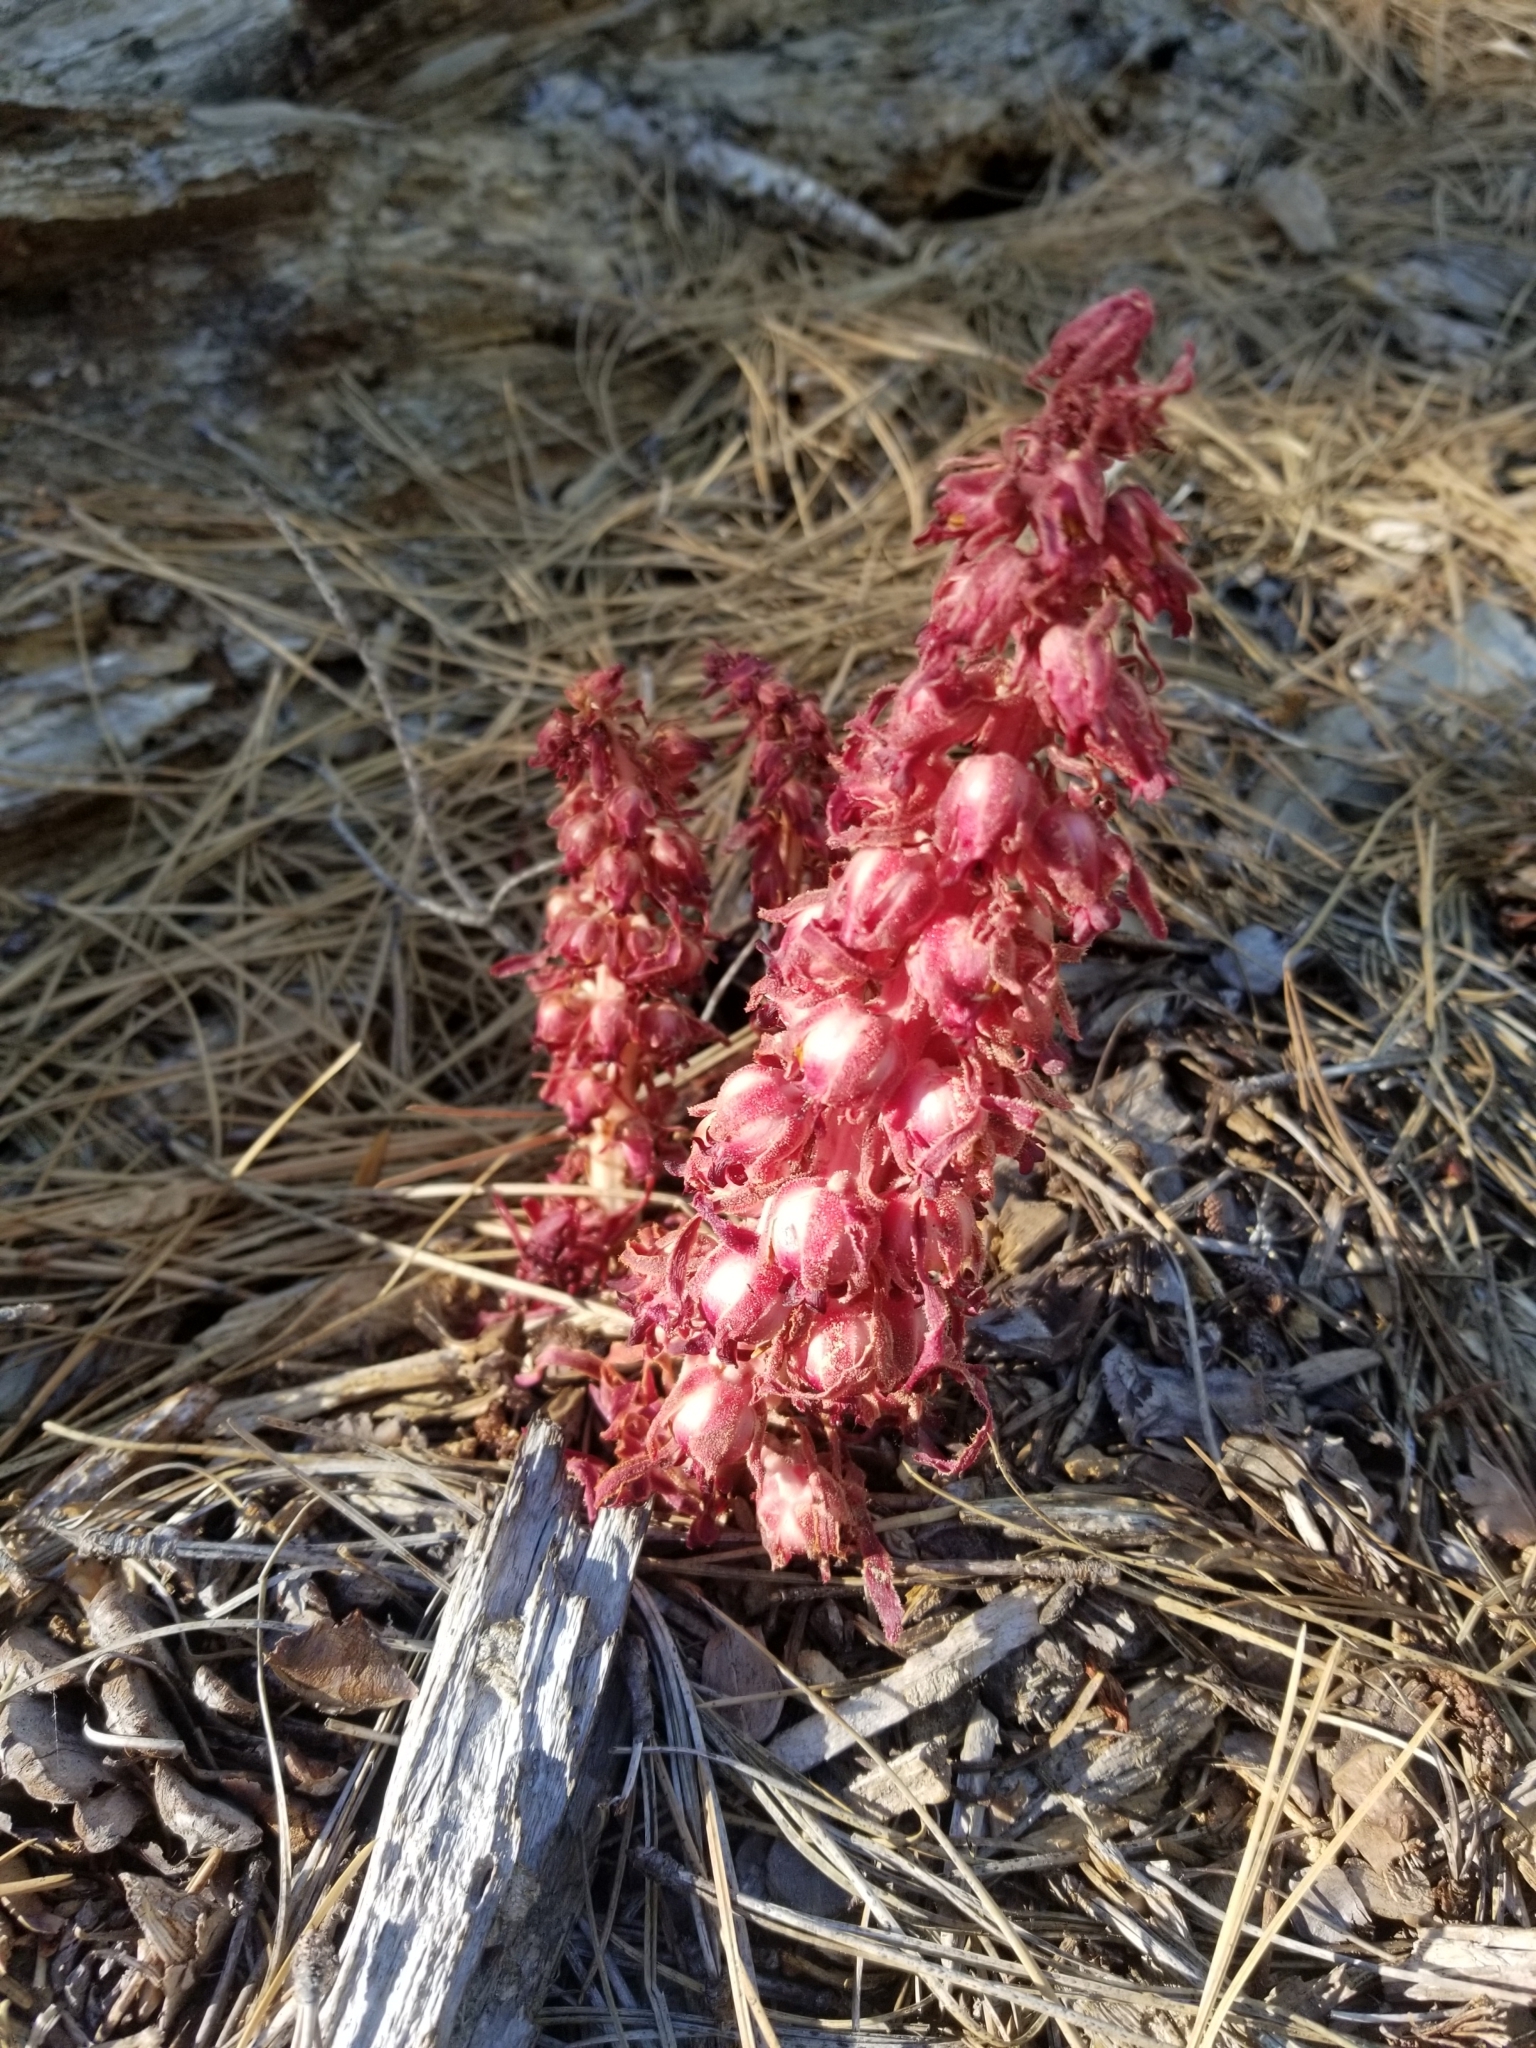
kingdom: Plantae
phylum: Tracheophyta
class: Magnoliopsida
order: Ericales
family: Ericaceae
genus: Sarcodes
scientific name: Sarcodes sanguinea
